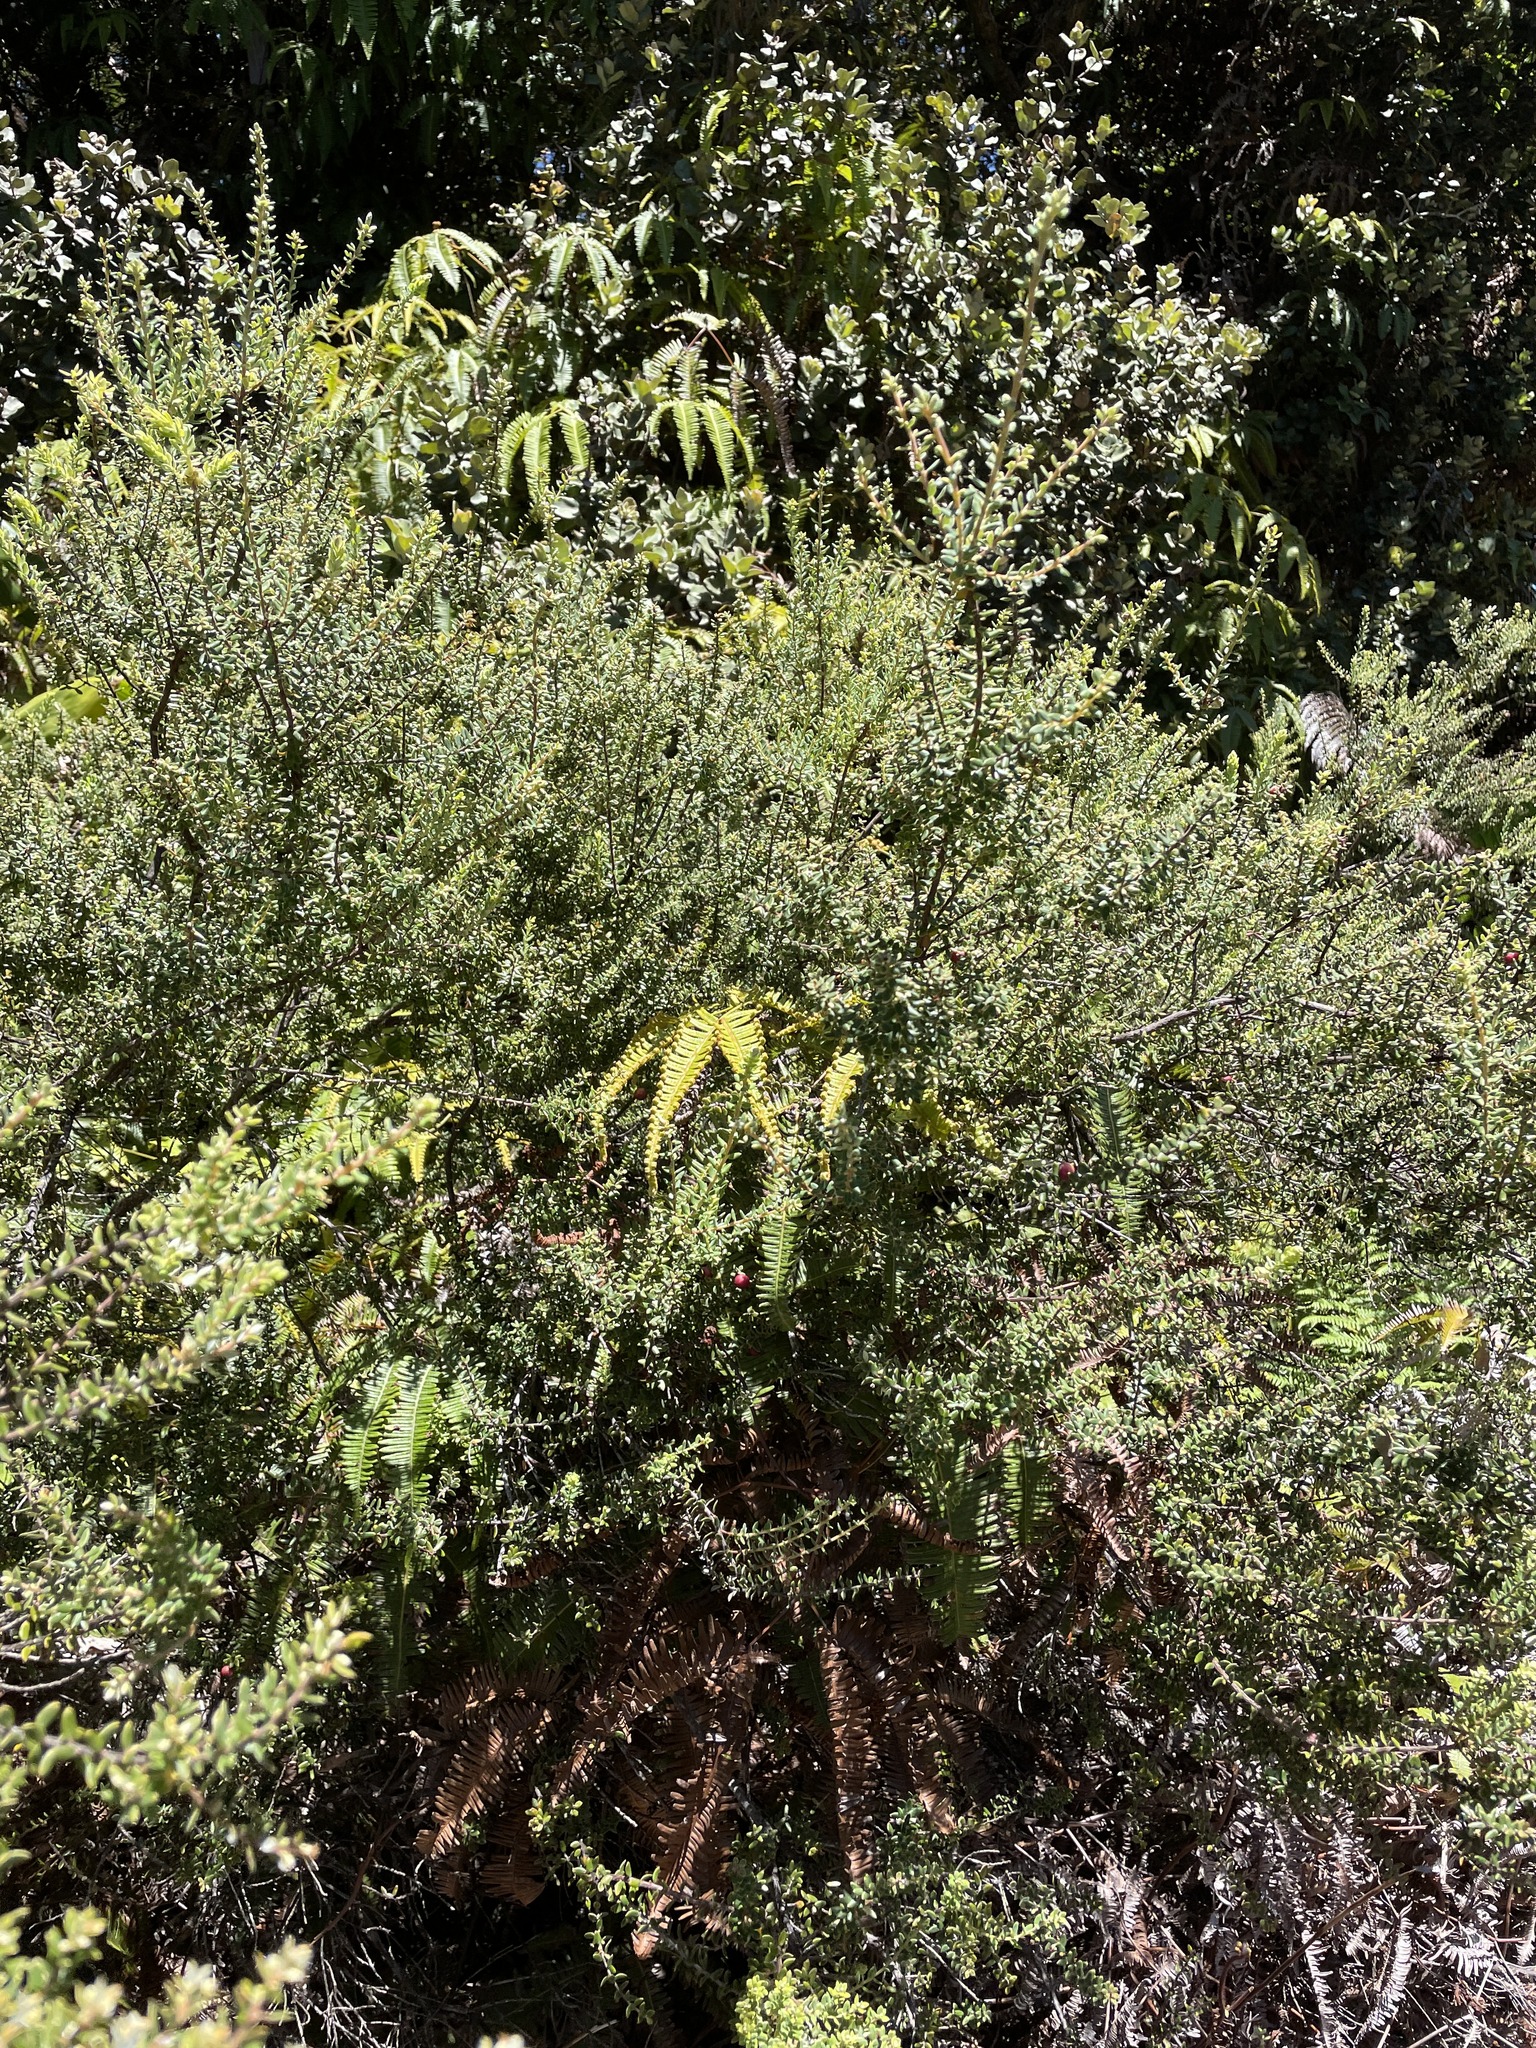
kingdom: Plantae
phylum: Tracheophyta
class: Magnoliopsida
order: Ericales
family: Ericaceae
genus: Leptecophylla
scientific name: Leptecophylla tameiameiae
